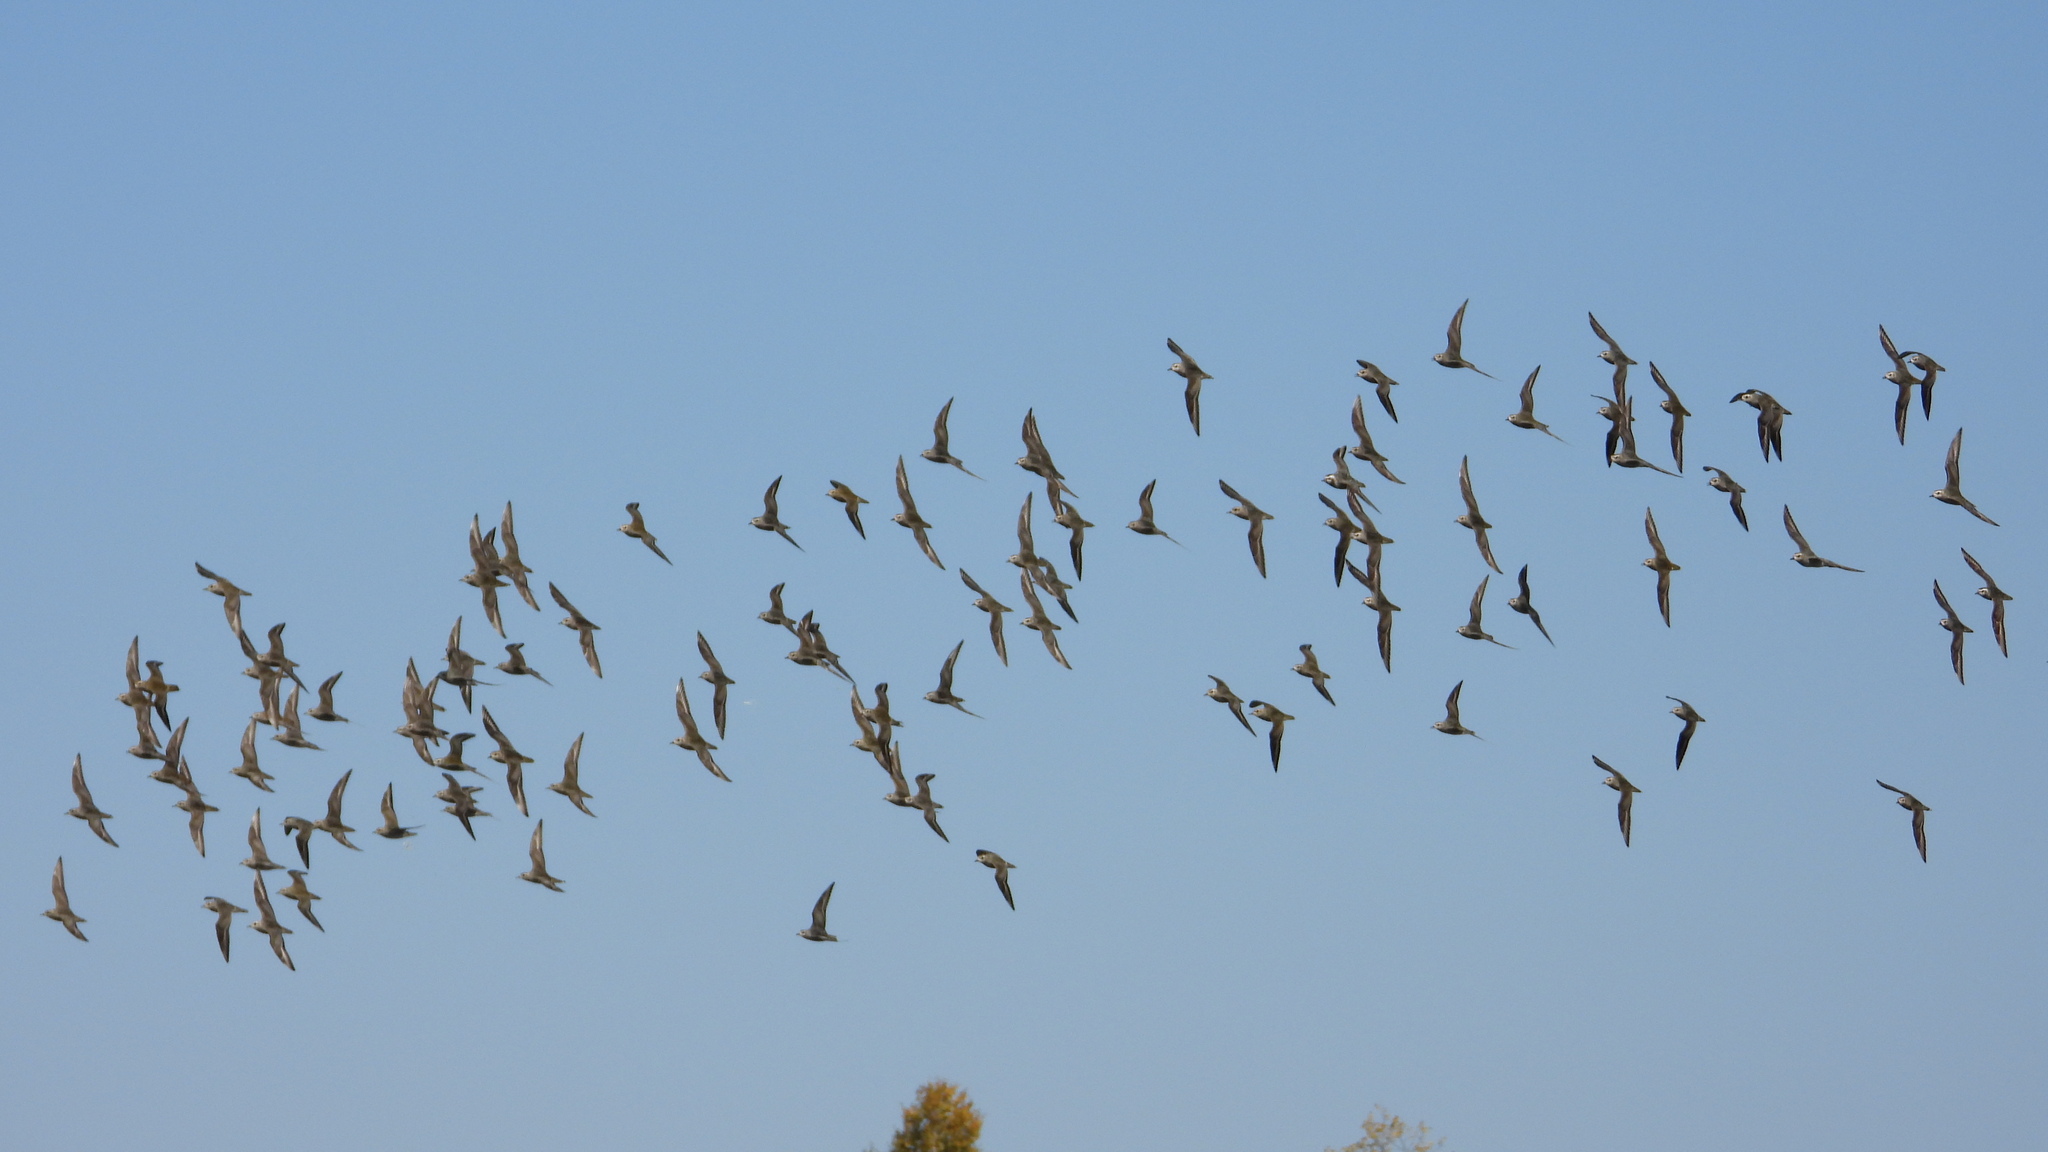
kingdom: Animalia
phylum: Chordata
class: Aves
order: Charadriiformes
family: Charadriidae
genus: Pluvialis
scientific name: Pluvialis dominica
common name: American golden plover
